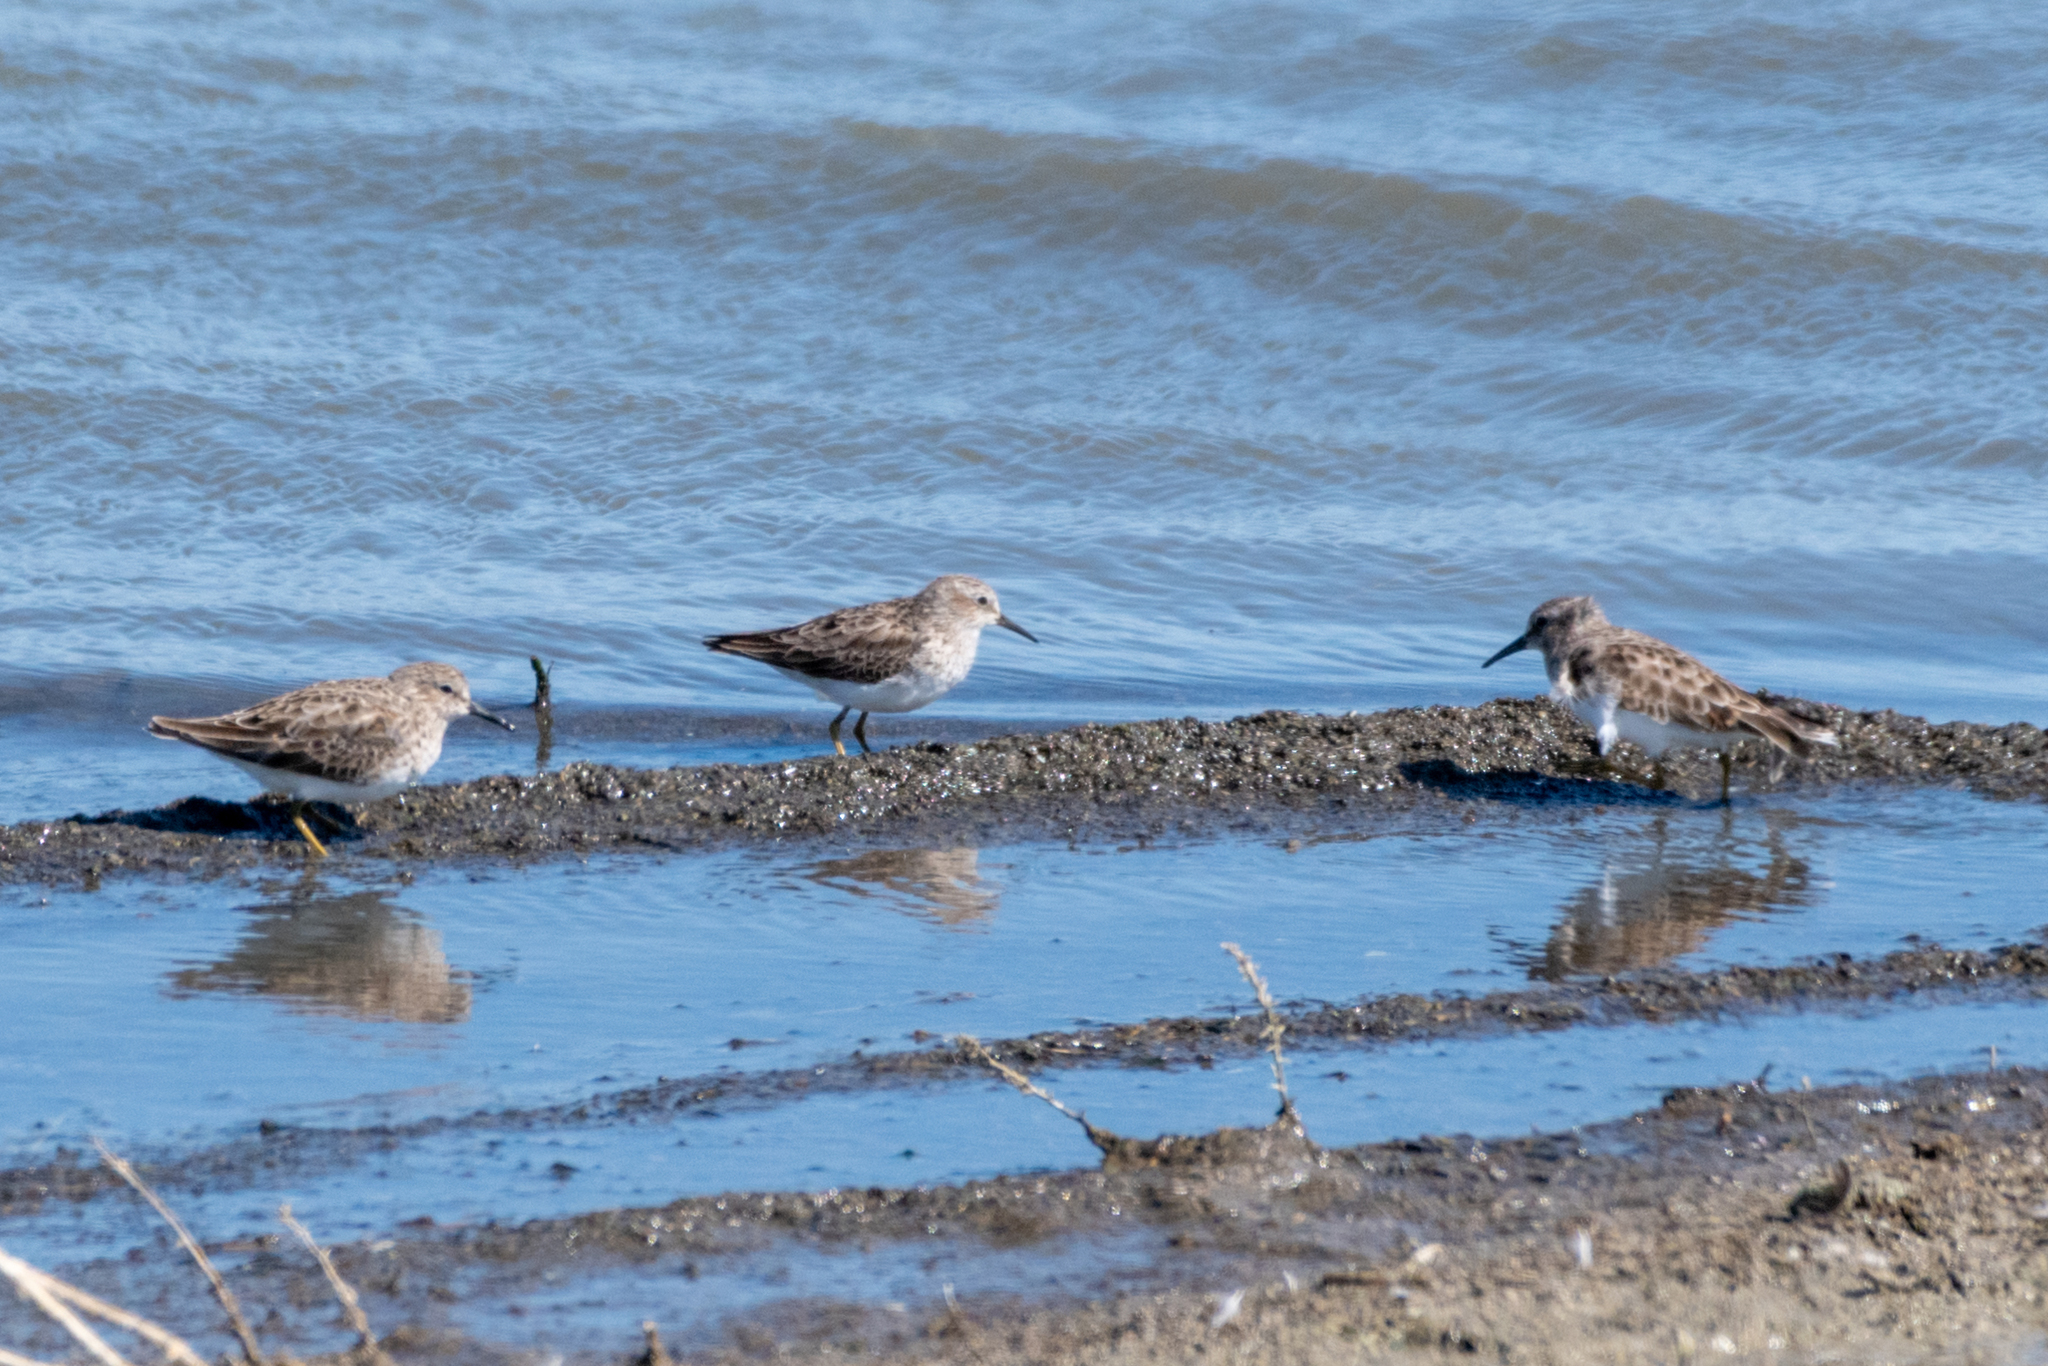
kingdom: Animalia
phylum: Chordata
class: Aves
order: Charadriiformes
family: Scolopacidae
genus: Calidris
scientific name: Calidris minutilla
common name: Least sandpiper
